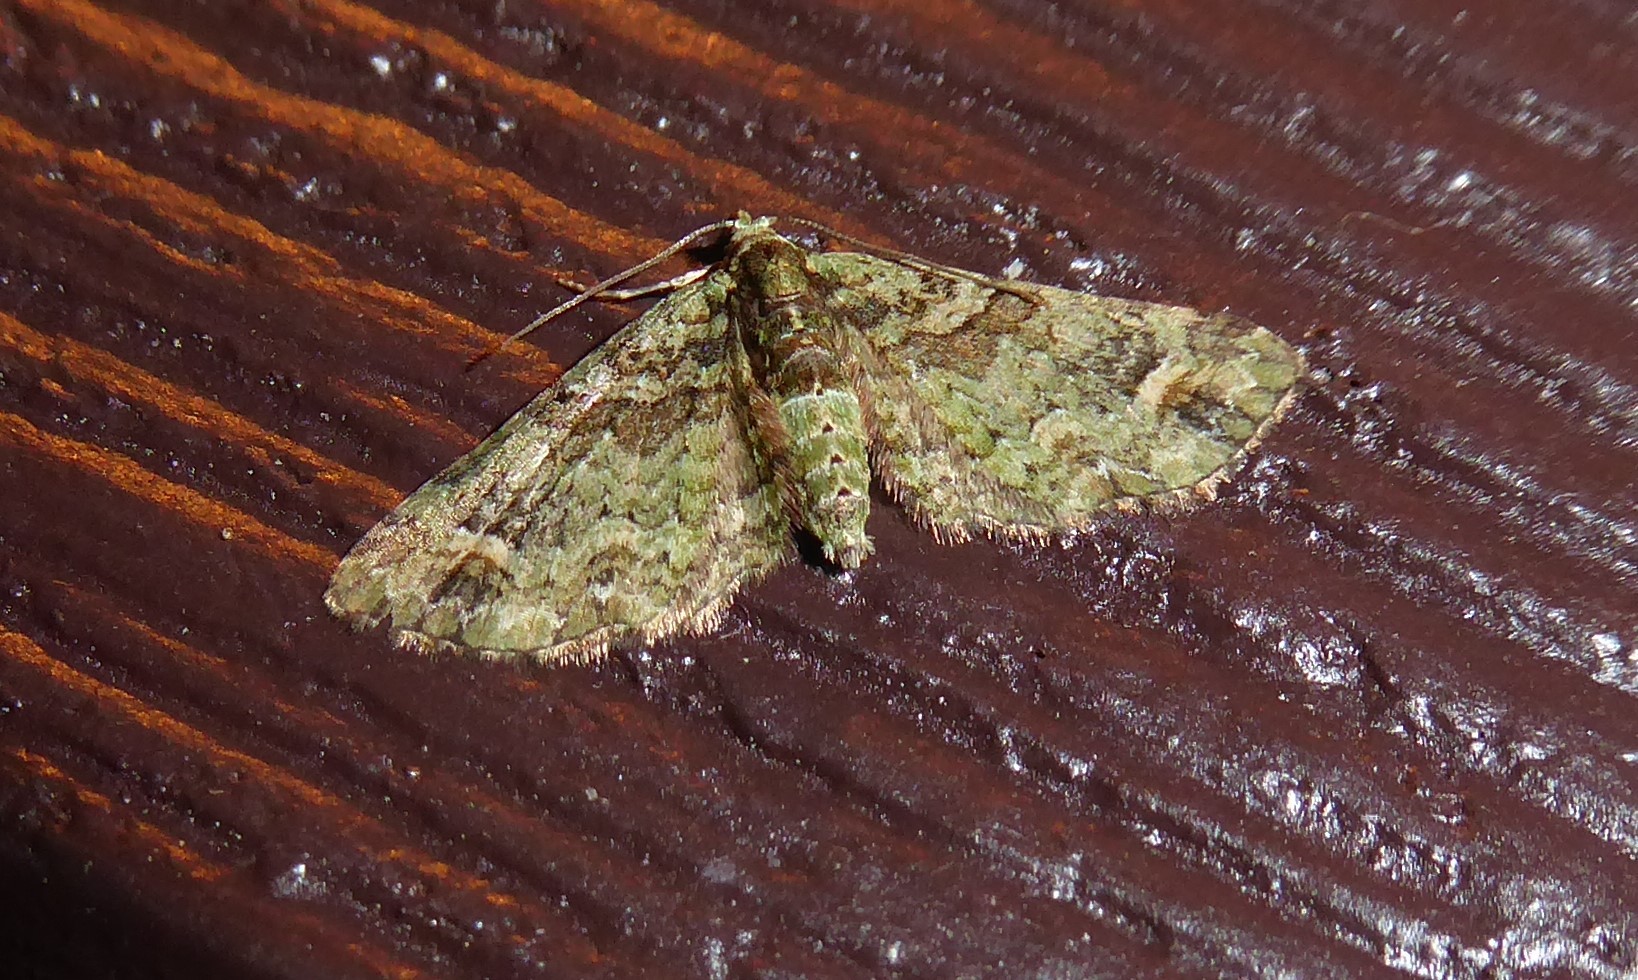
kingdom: Animalia
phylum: Arthropoda
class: Insecta
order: Lepidoptera
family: Geometridae
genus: Idaea
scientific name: Idaea mutanda
